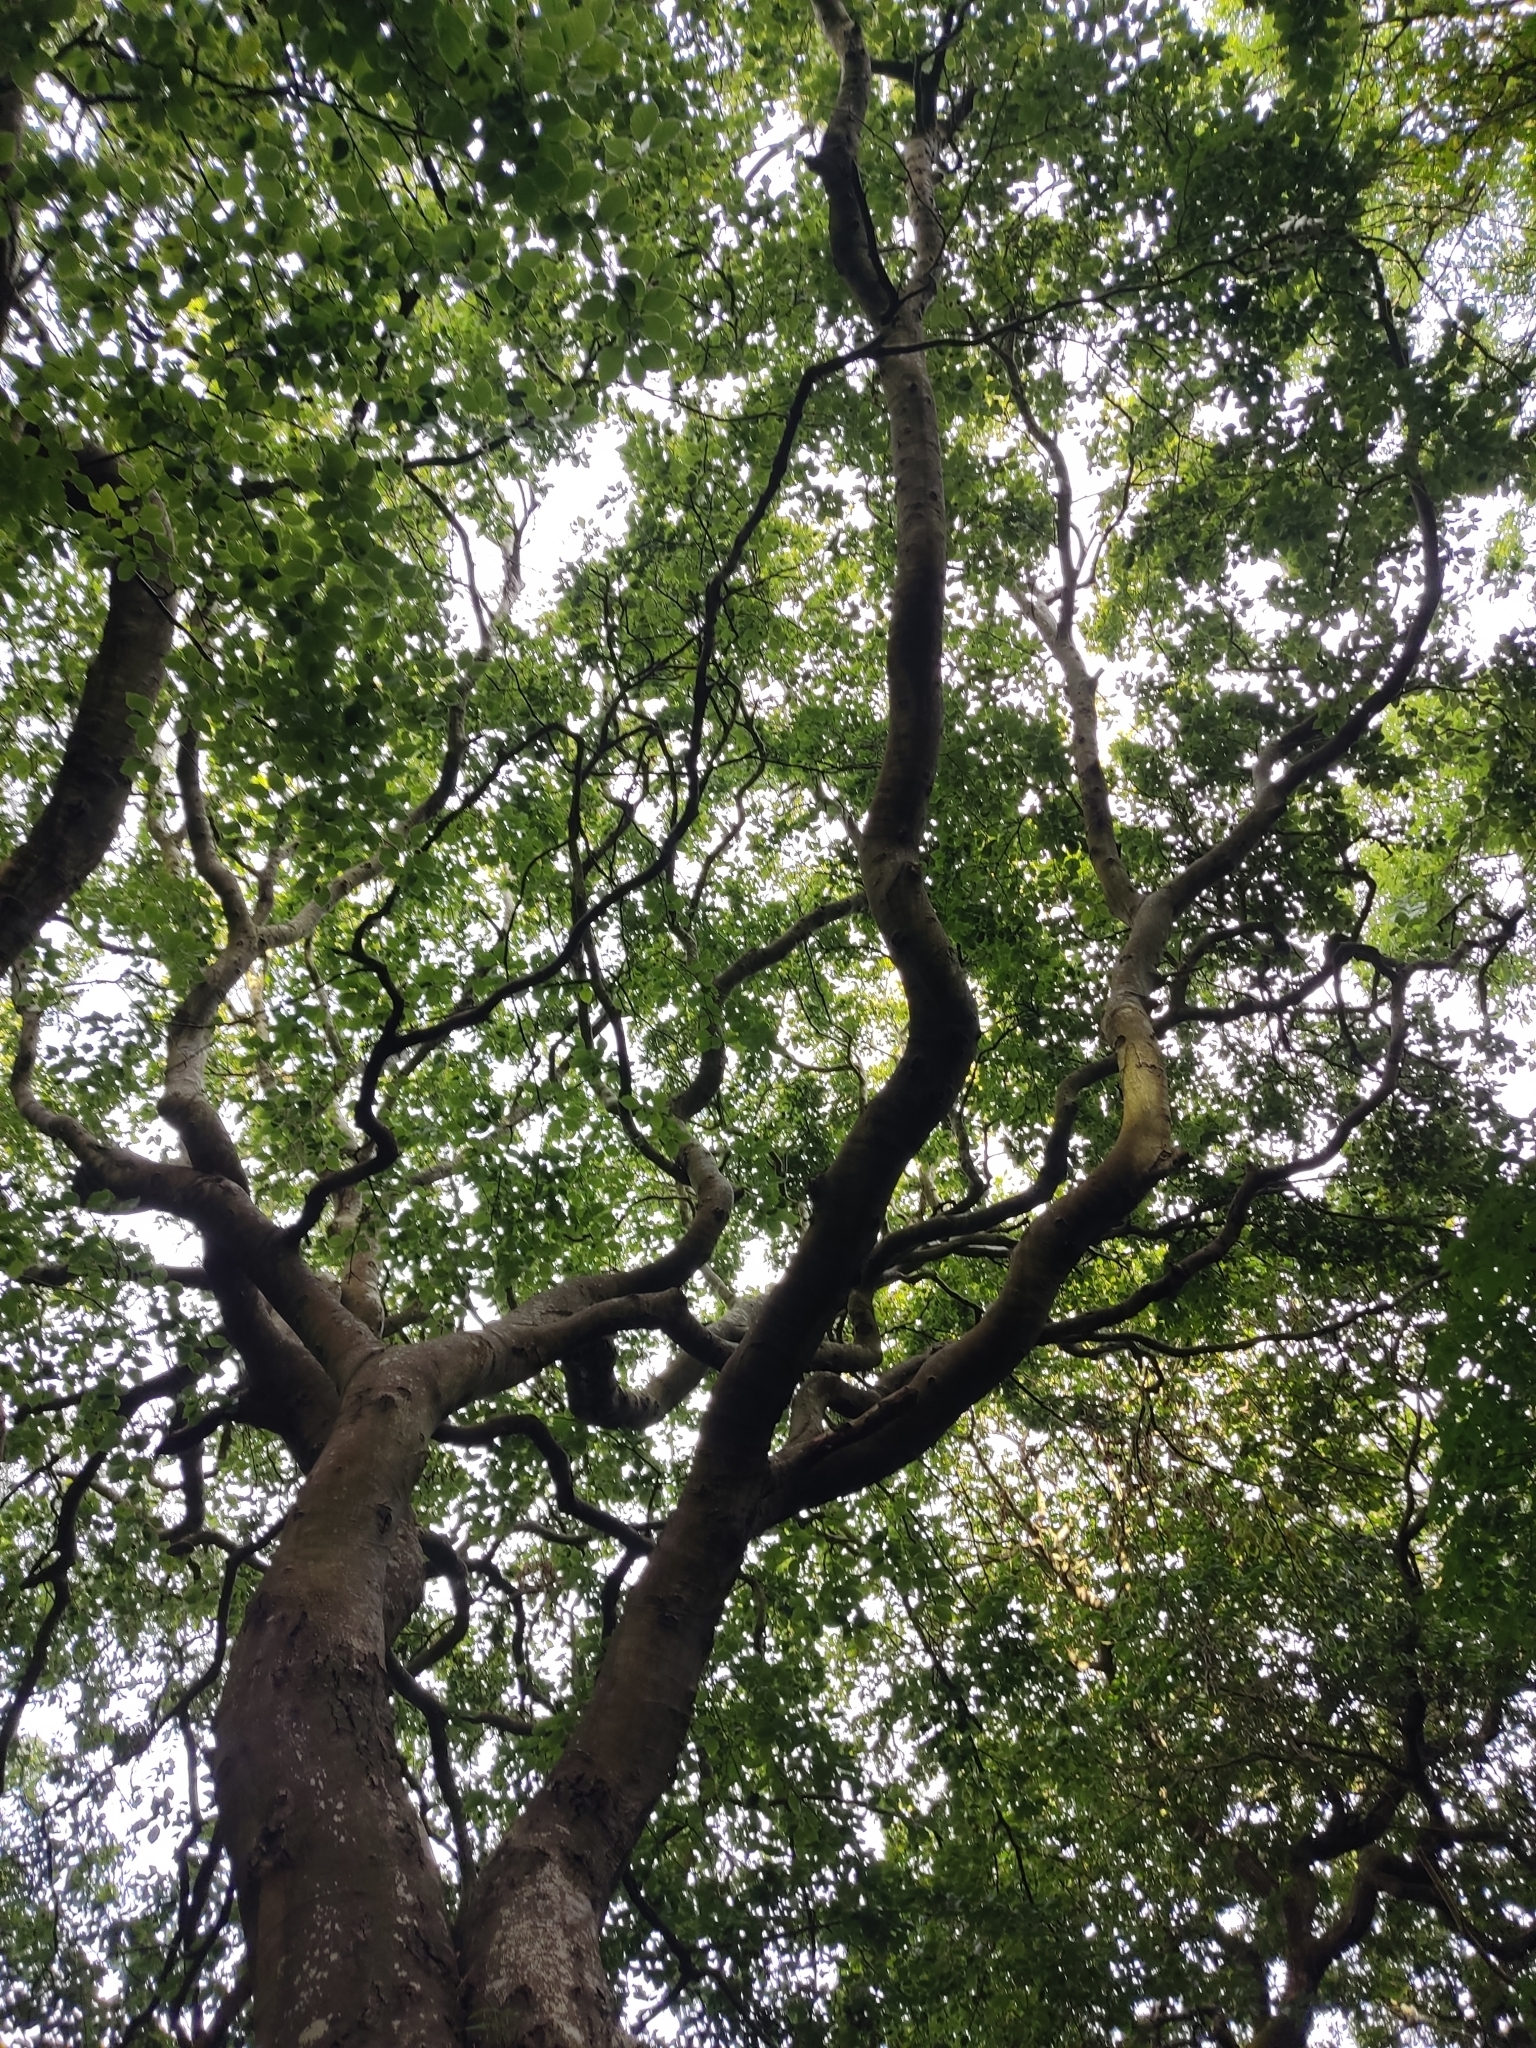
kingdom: Plantae
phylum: Tracheophyta
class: Magnoliopsida
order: Fagales
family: Fagaceae
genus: Fagus
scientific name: Fagus sylvatica
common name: Beech
